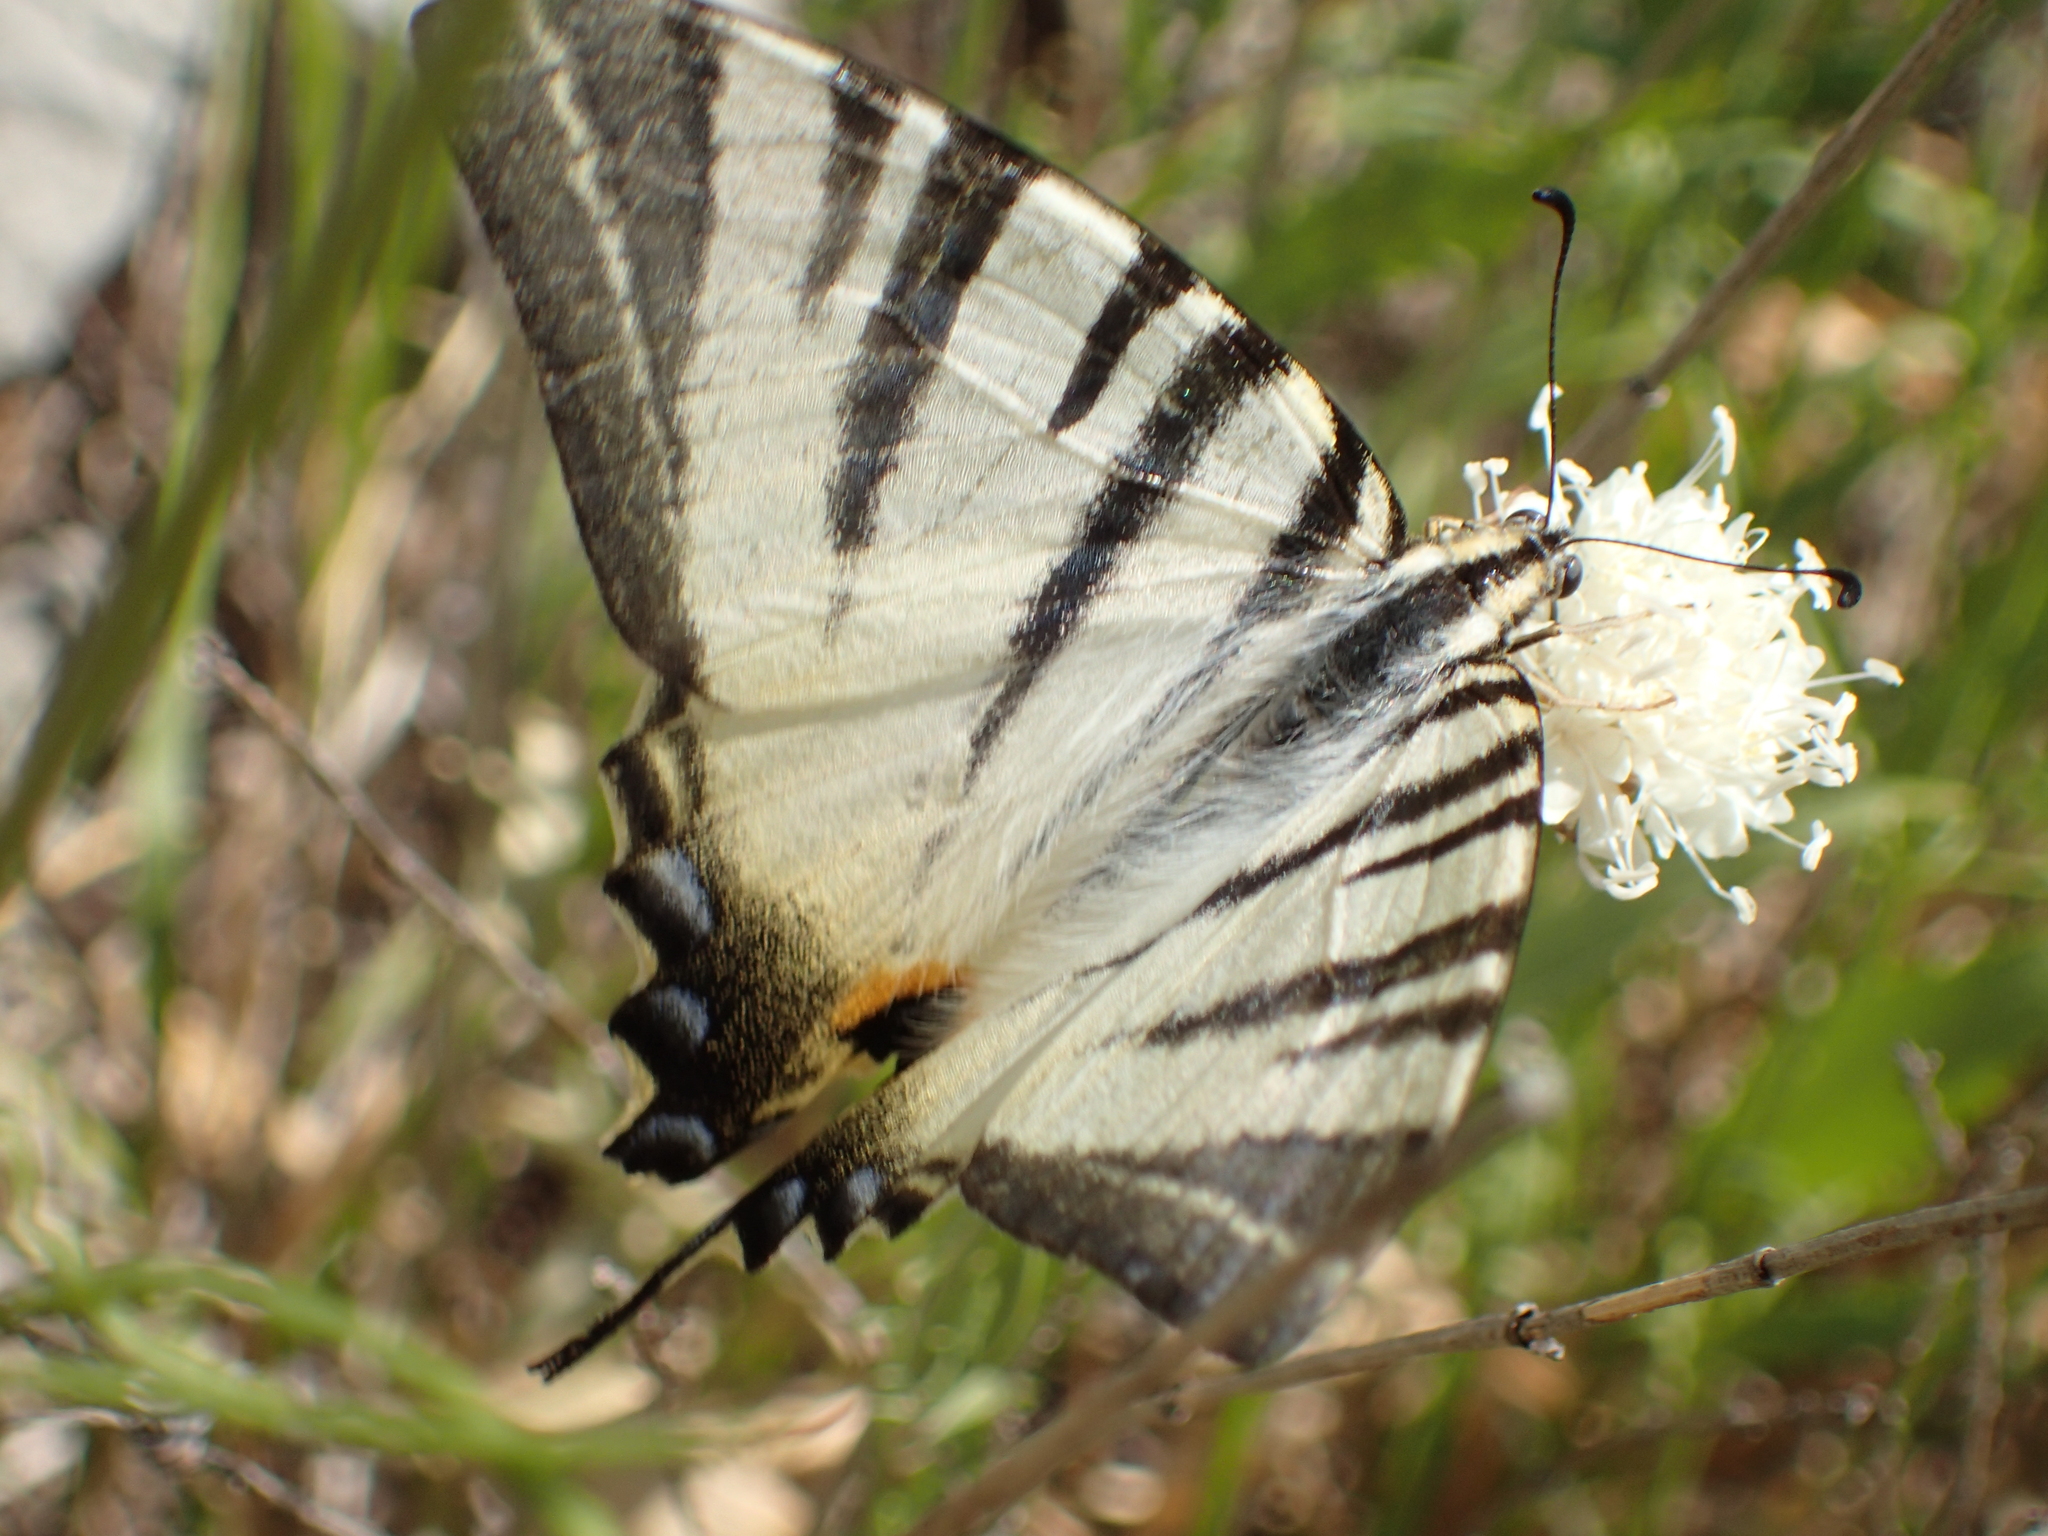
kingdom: Animalia
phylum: Arthropoda
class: Insecta
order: Lepidoptera
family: Papilionidae
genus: Iphiclides
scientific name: Iphiclides podalirius
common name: Scarce swallowtail
